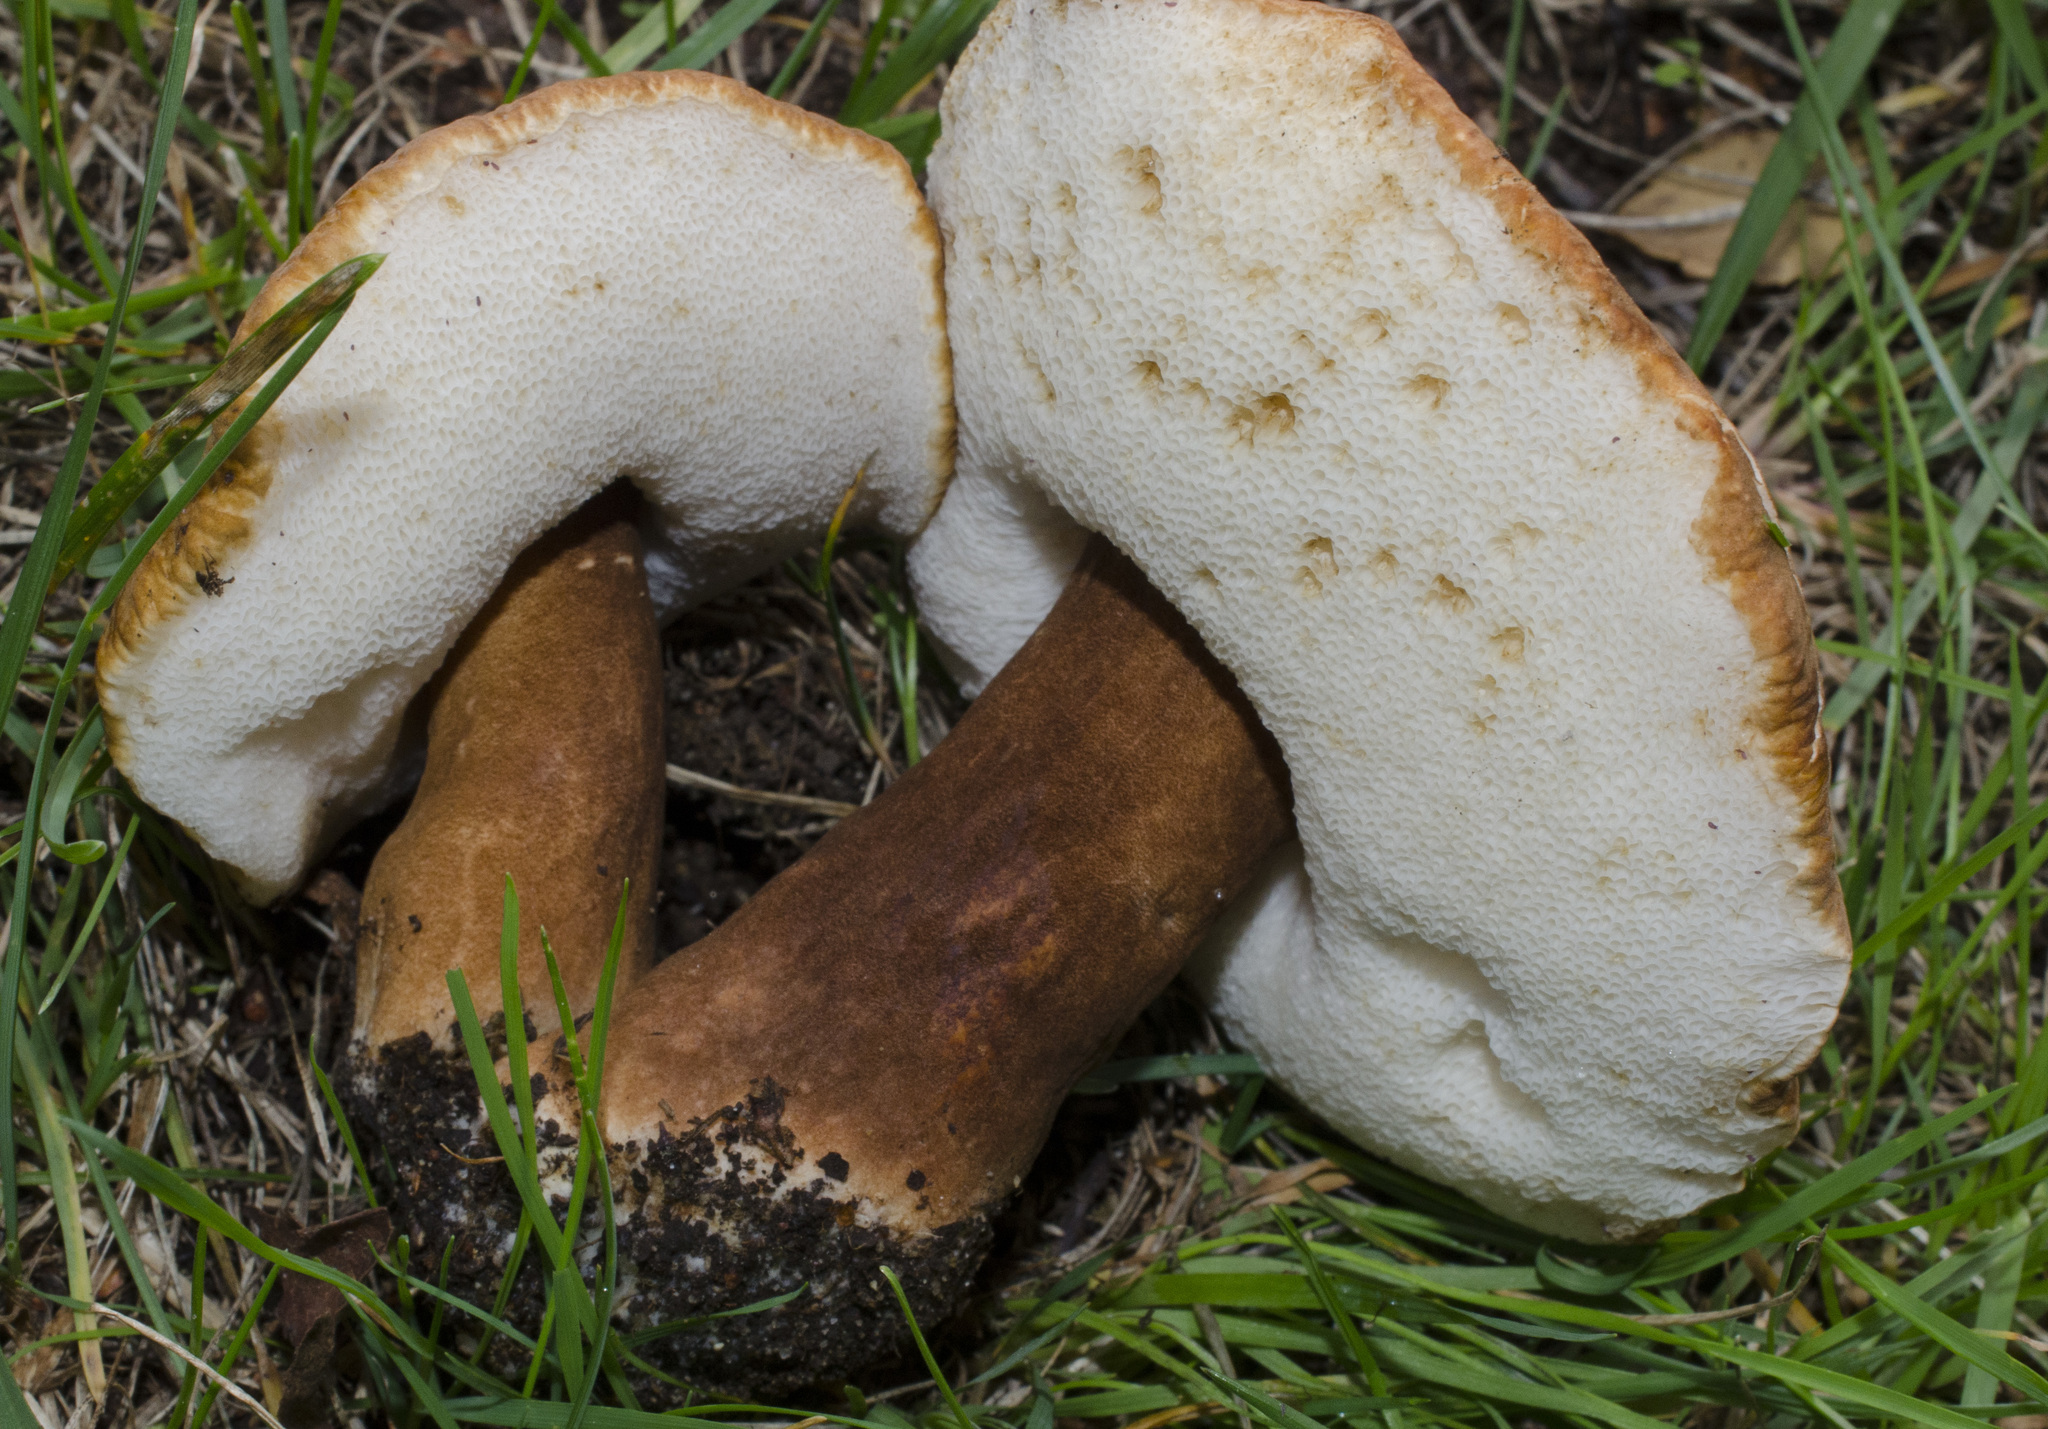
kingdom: Fungi
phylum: Basidiomycota
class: Agaricomycetes
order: Boletales
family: Gyroporaceae
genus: Gyroporus
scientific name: Gyroporus castaneus
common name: Chestnut bolete
